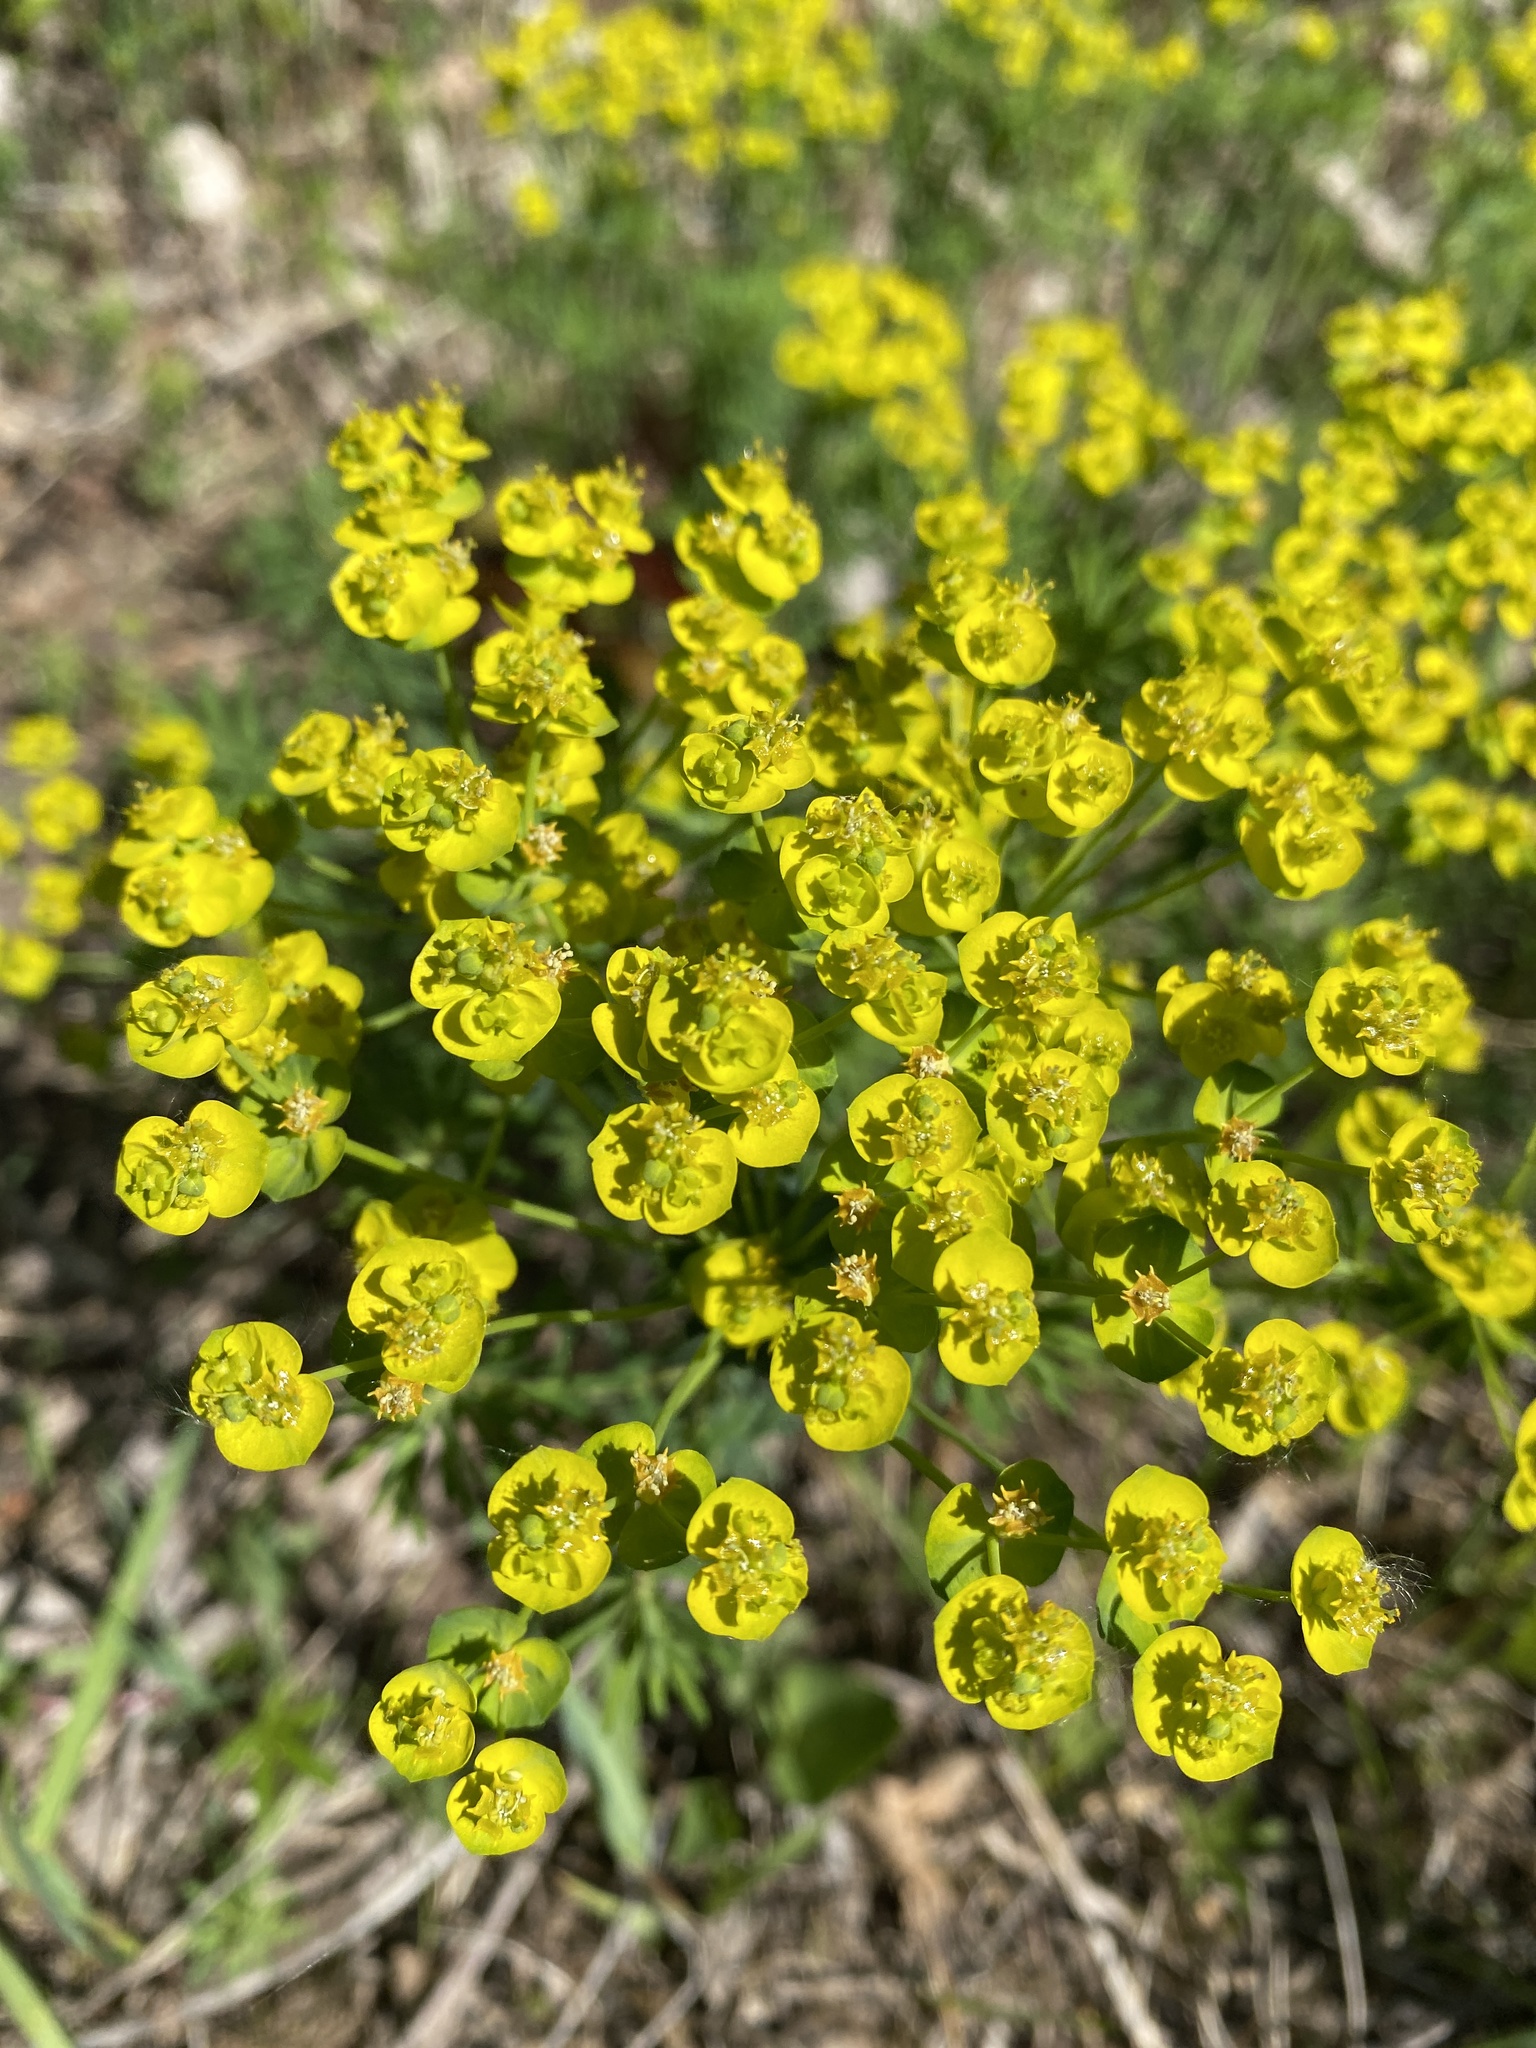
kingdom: Plantae
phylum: Tracheophyta
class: Magnoliopsida
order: Malpighiales
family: Euphorbiaceae
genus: Euphorbia
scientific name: Euphorbia virgata
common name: Leafy spurge
